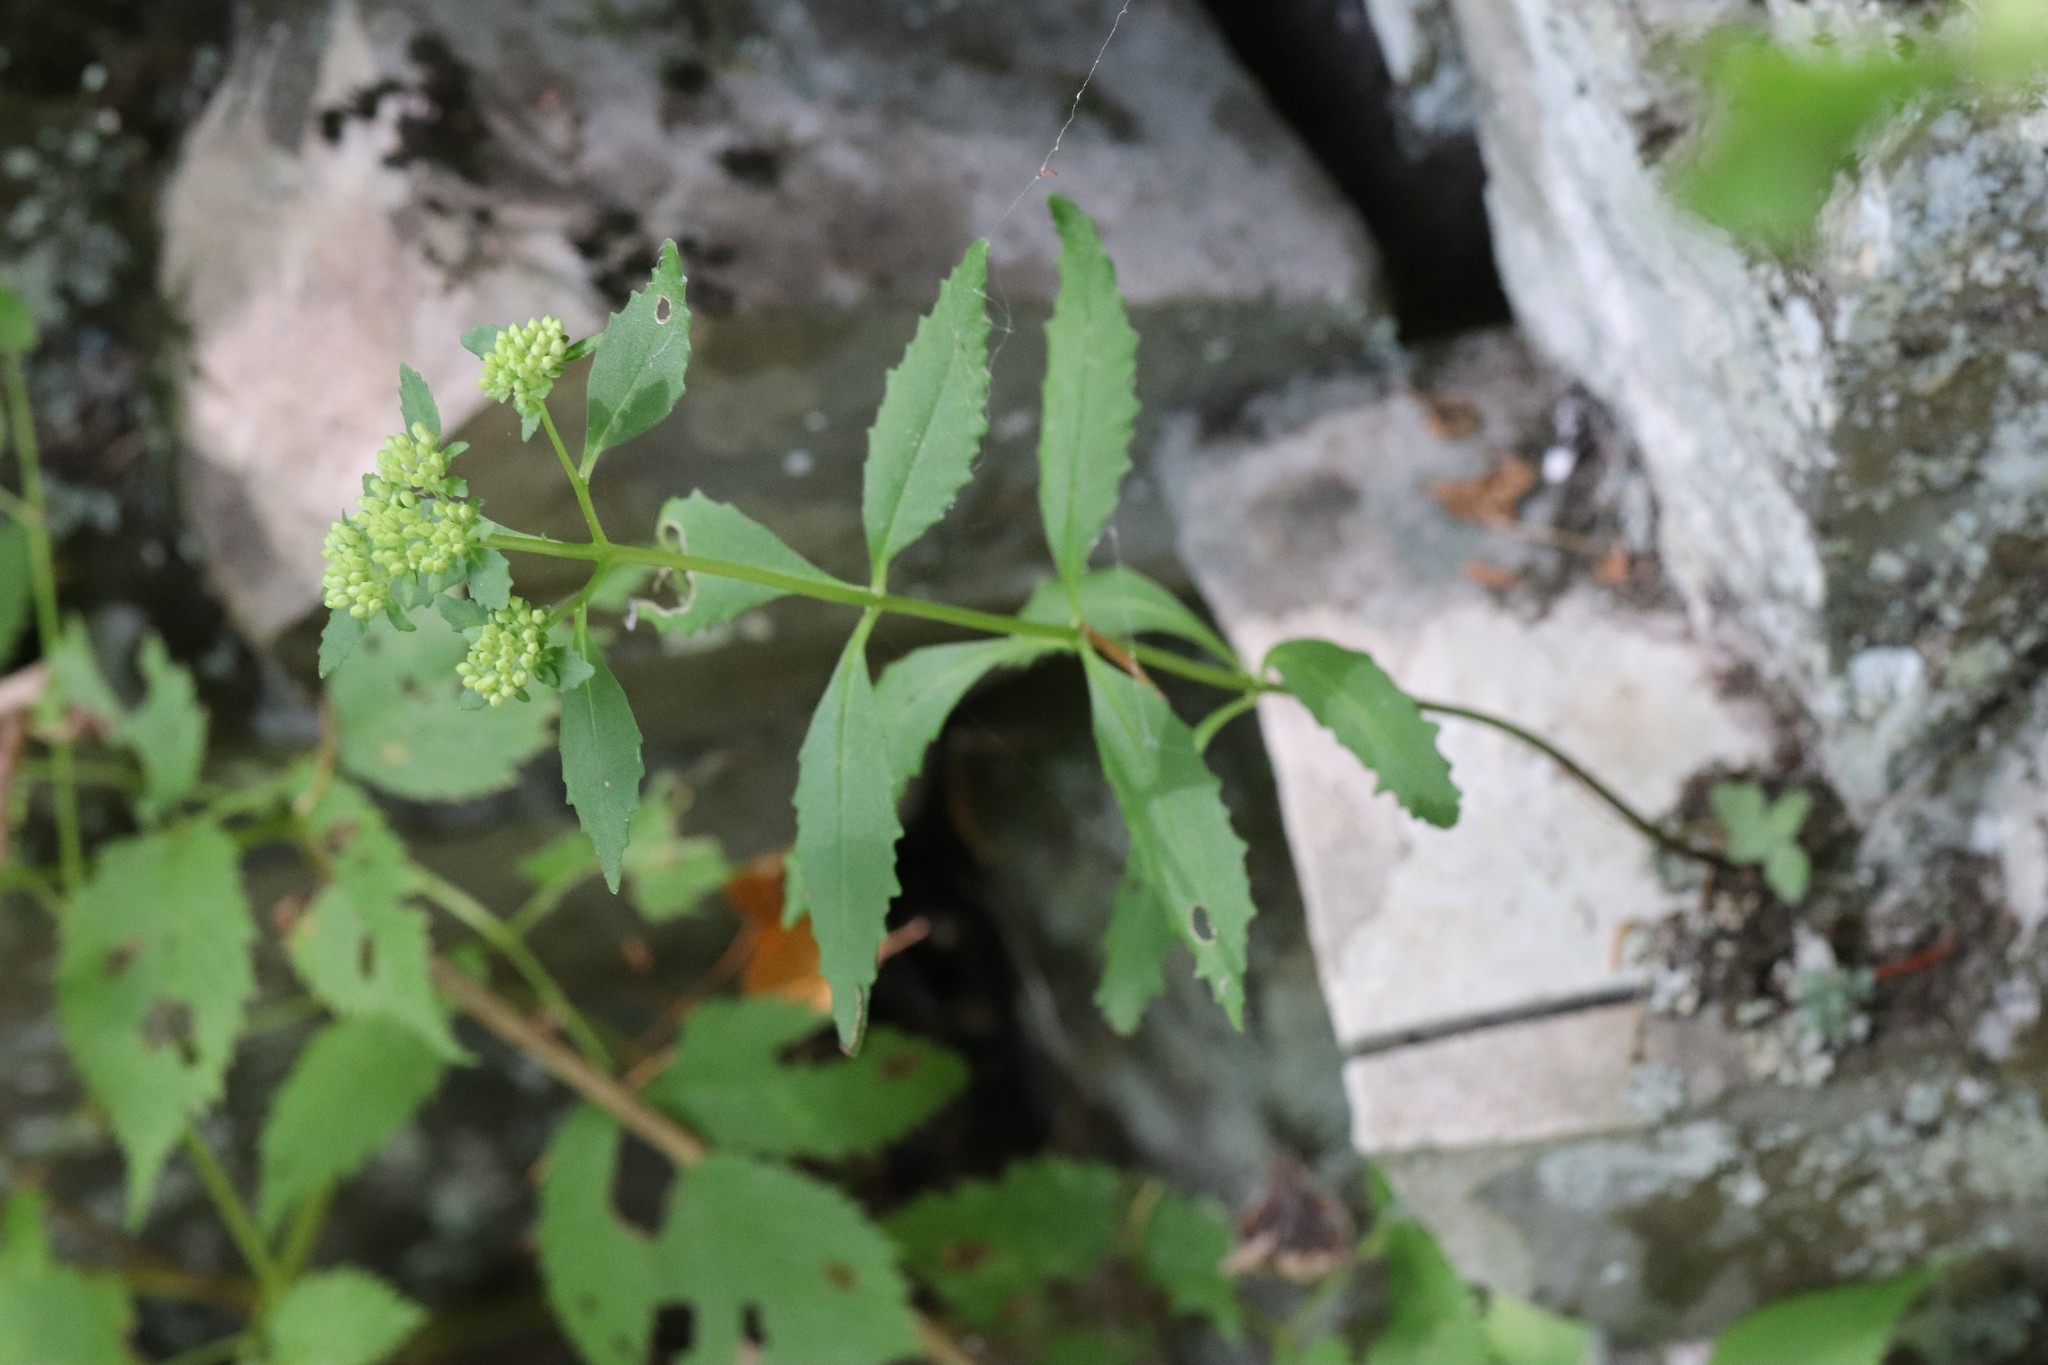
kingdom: Plantae
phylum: Tracheophyta
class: Magnoliopsida
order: Saxifragales
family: Crassulaceae
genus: Hylotelephium
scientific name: Hylotelephium viviparum
